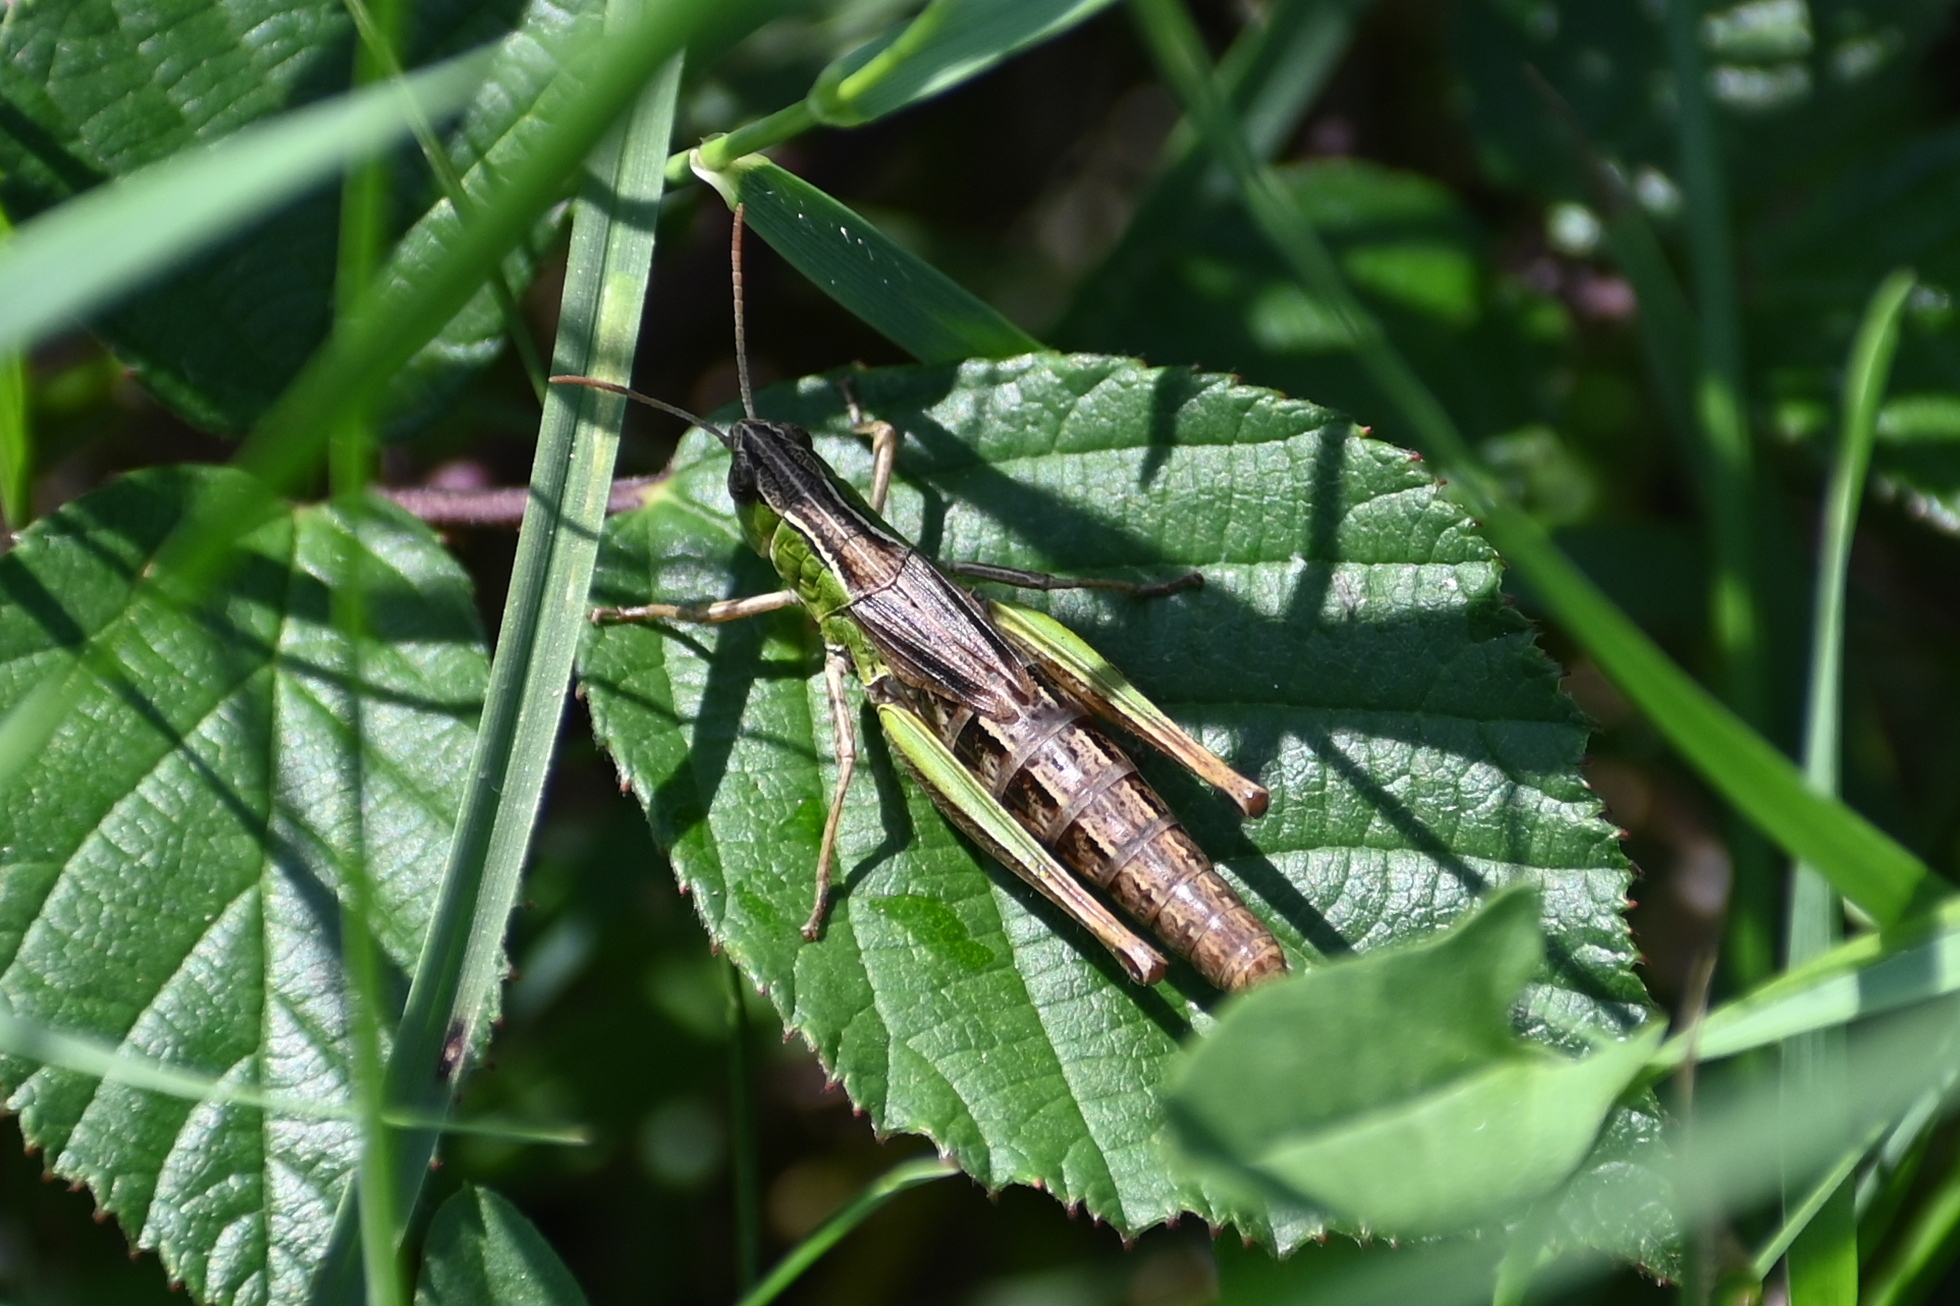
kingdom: Animalia
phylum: Arthropoda
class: Insecta
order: Orthoptera
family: Acrididae
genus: Pseudochorthippus
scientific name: Pseudochorthippus parallelus
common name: Meadow grasshopper
